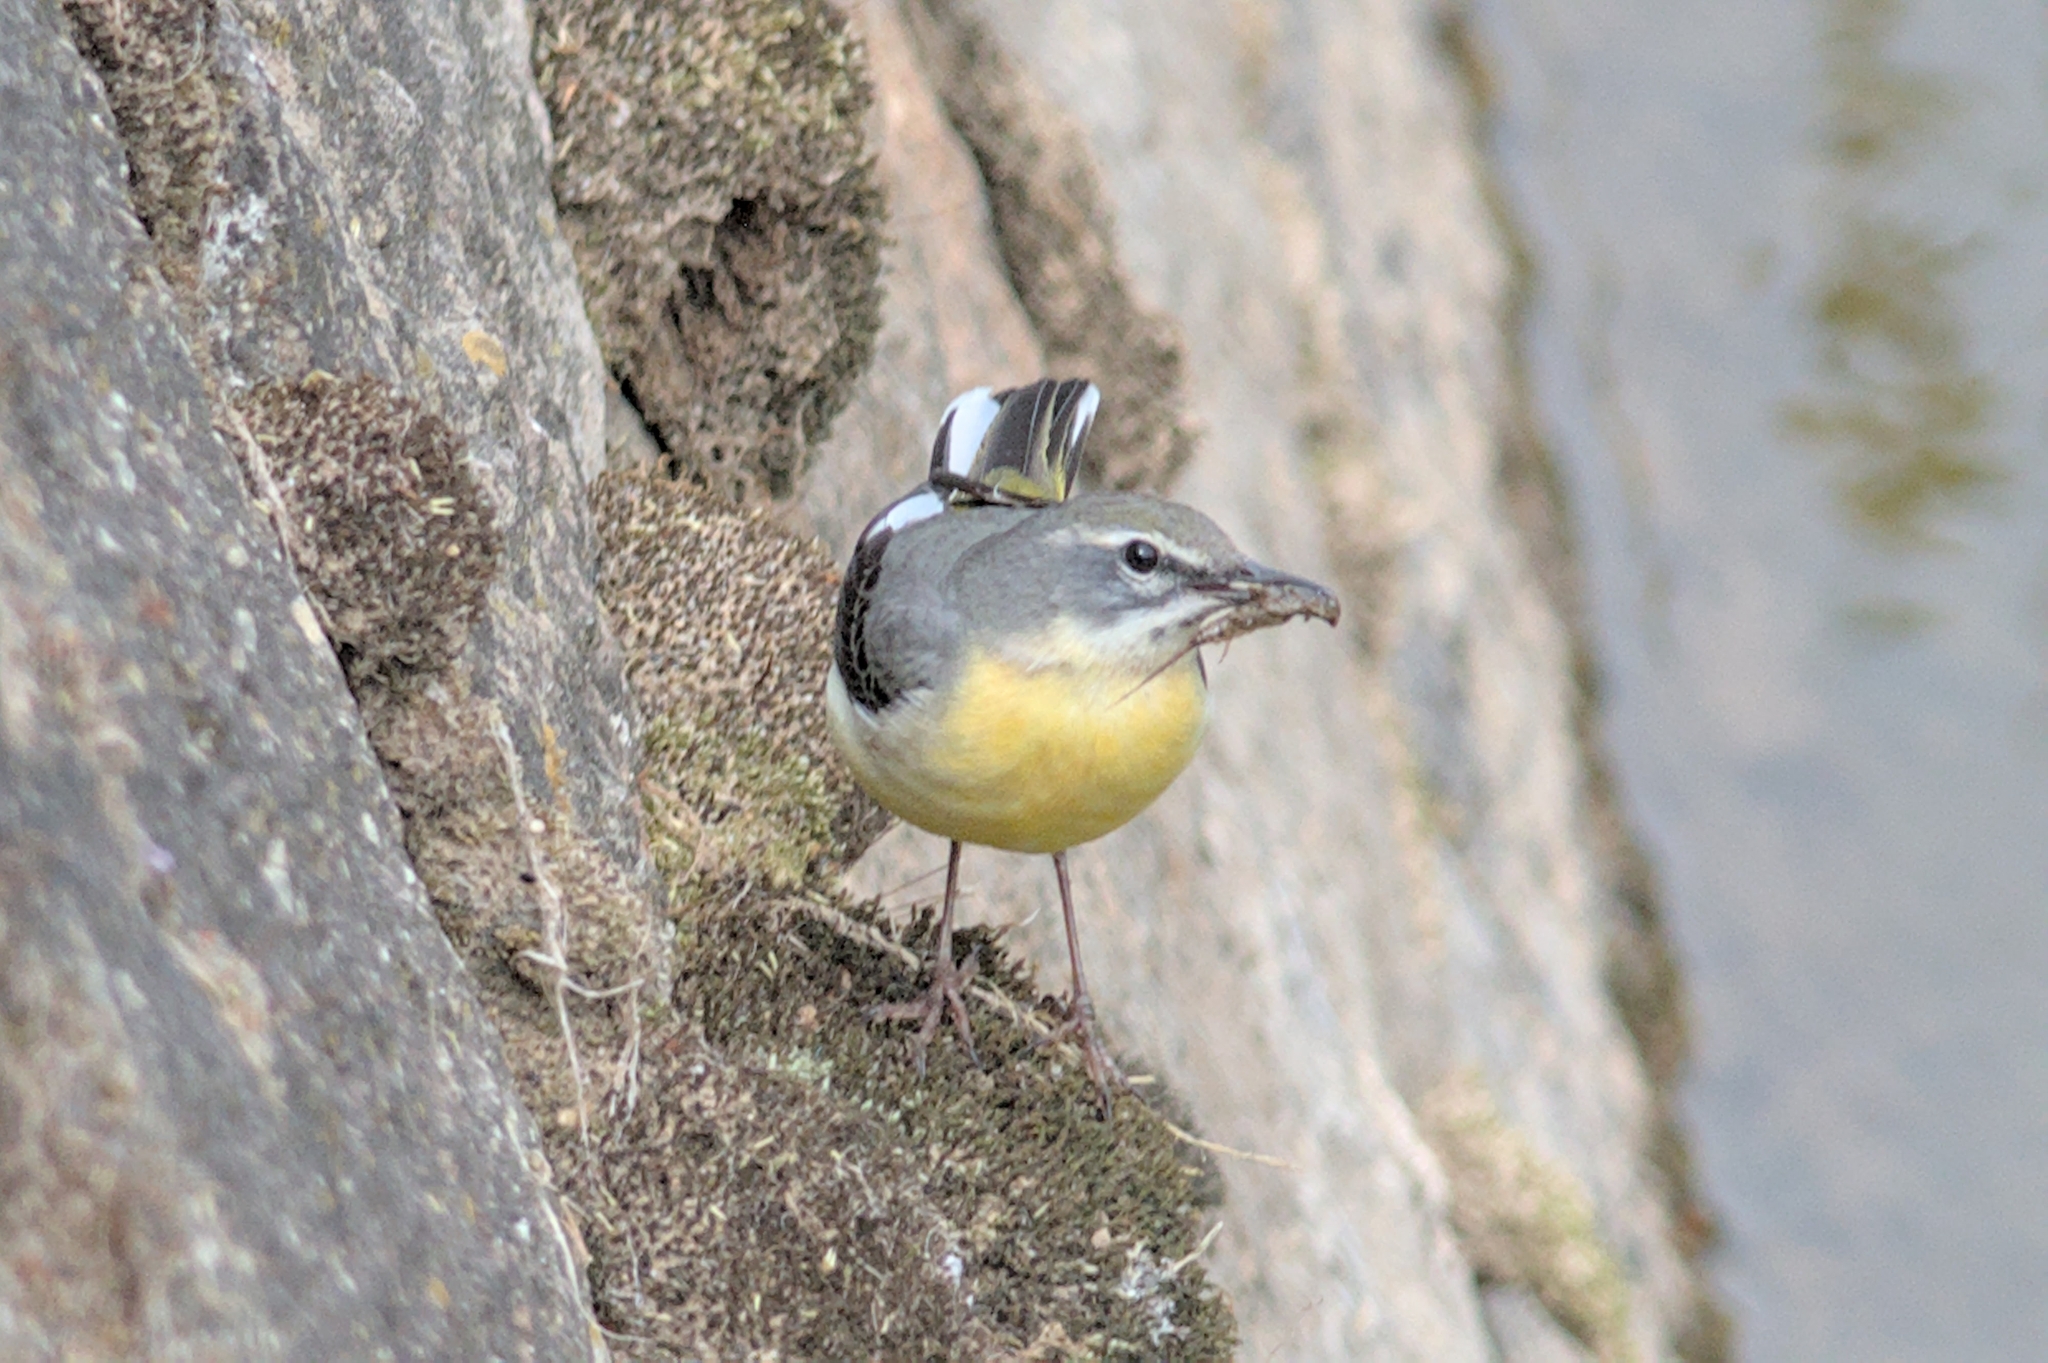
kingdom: Animalia
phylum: Chordata
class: Aves
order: Passeriformes
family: Motacillidae
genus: Motacilla
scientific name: Motacilla cinerea
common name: Grey wagtail
